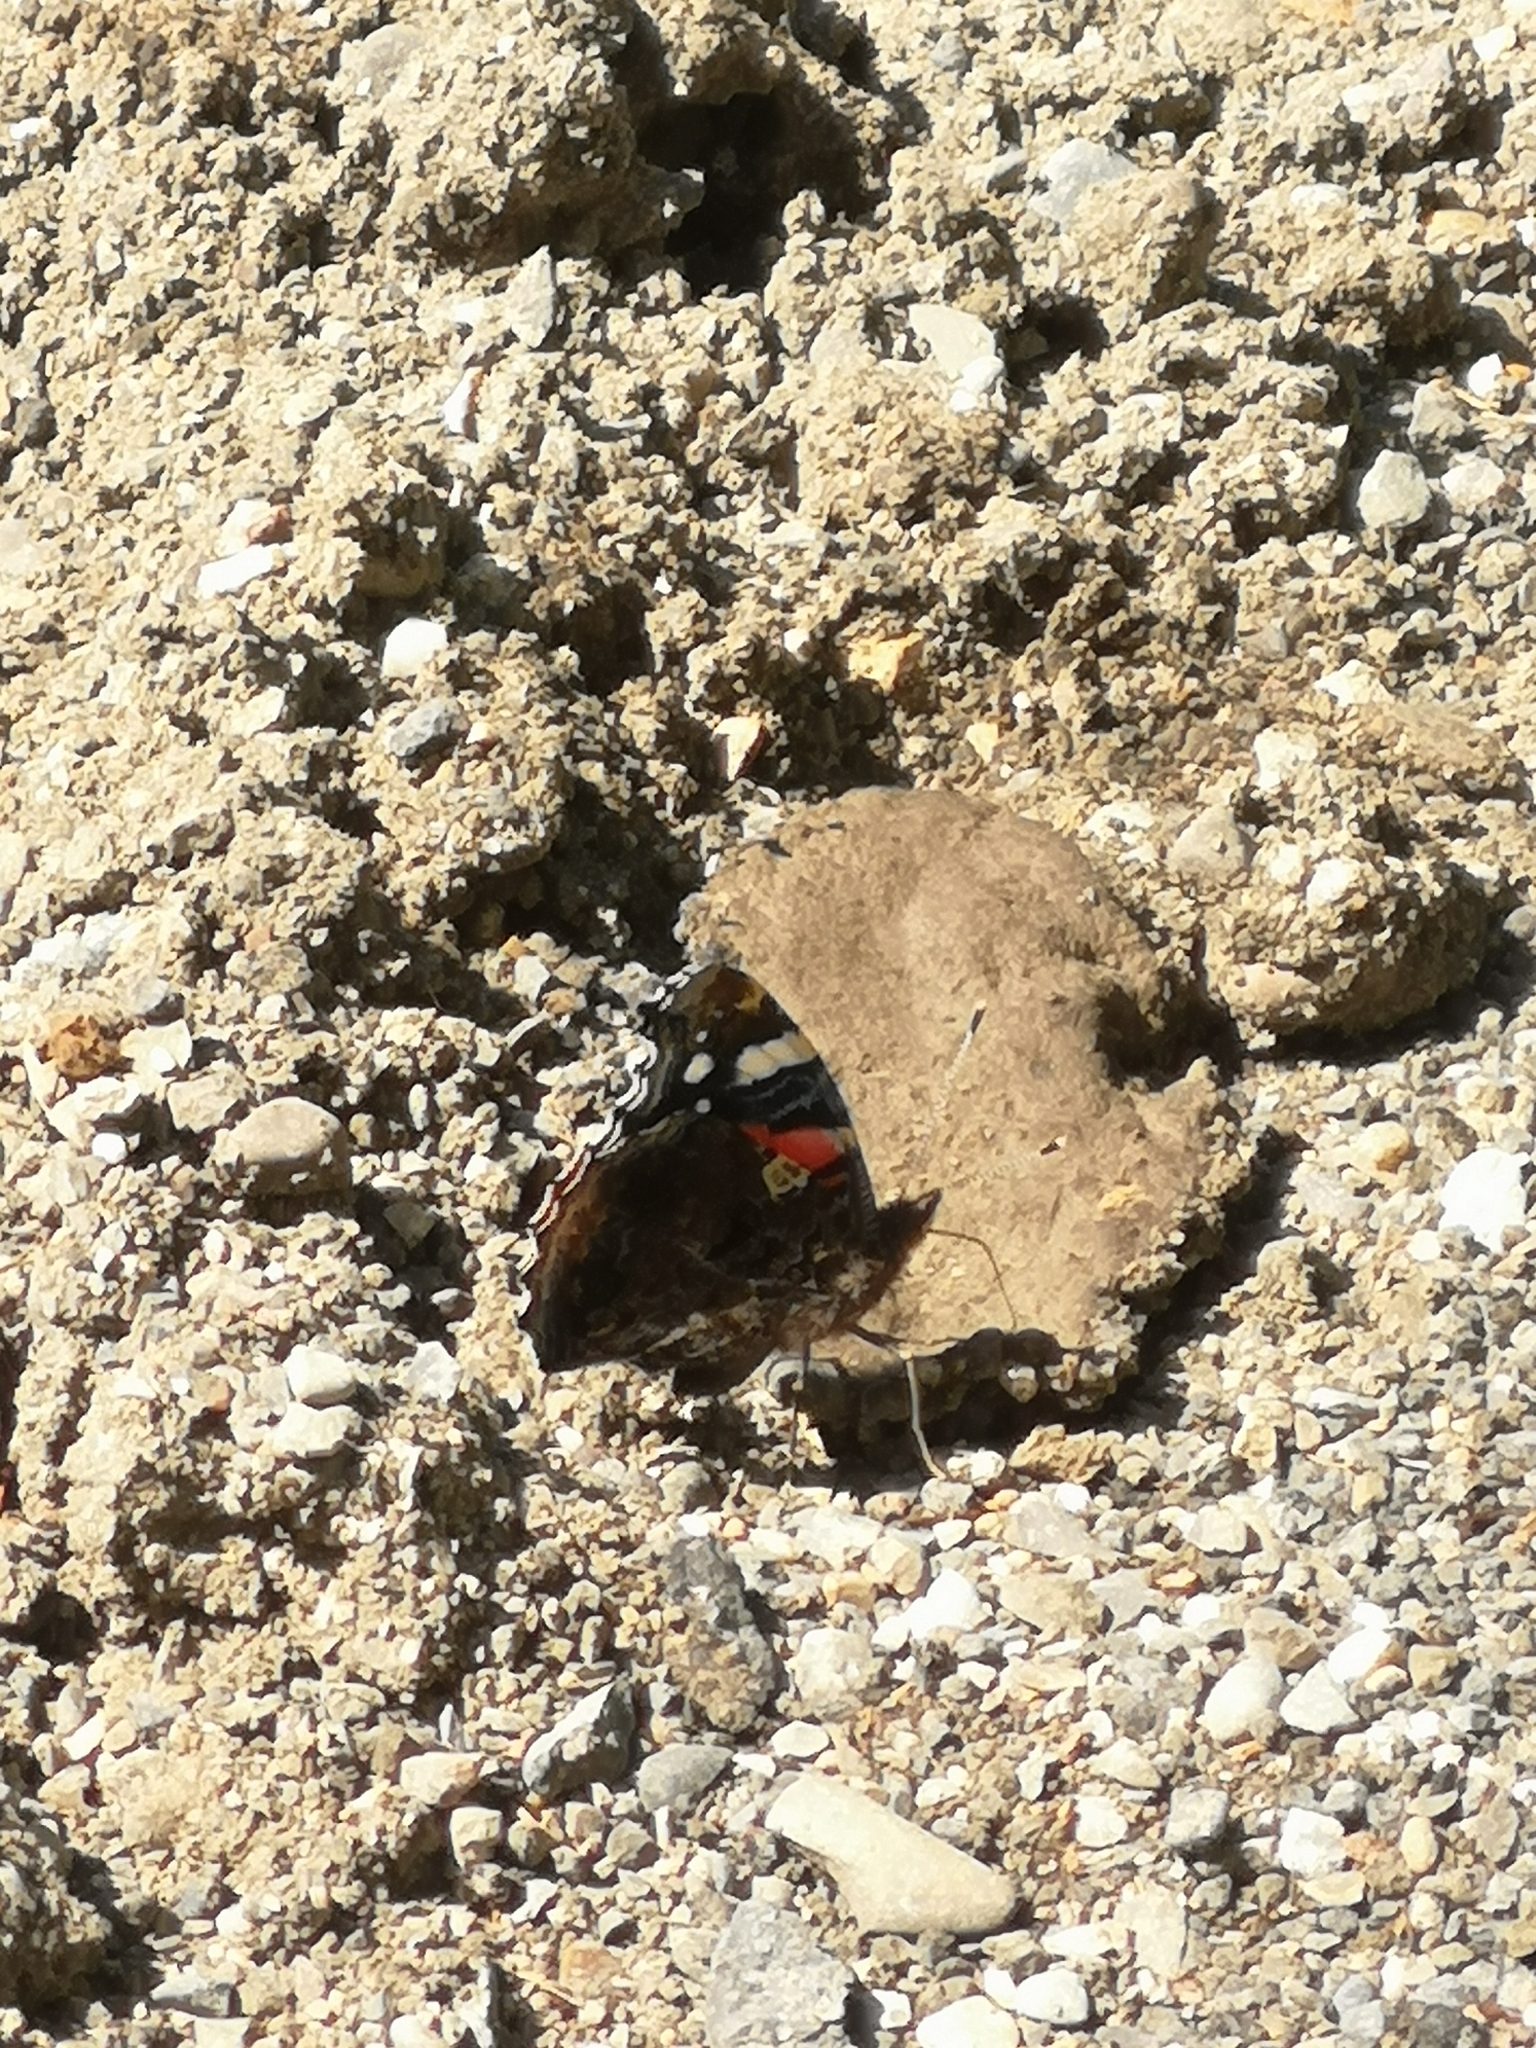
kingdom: Animalia
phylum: Arthropoda
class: Insecta
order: Lepidoptera
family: Nymphalidae
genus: Vanessa
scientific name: Vanessa atalanta
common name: Red admiral
